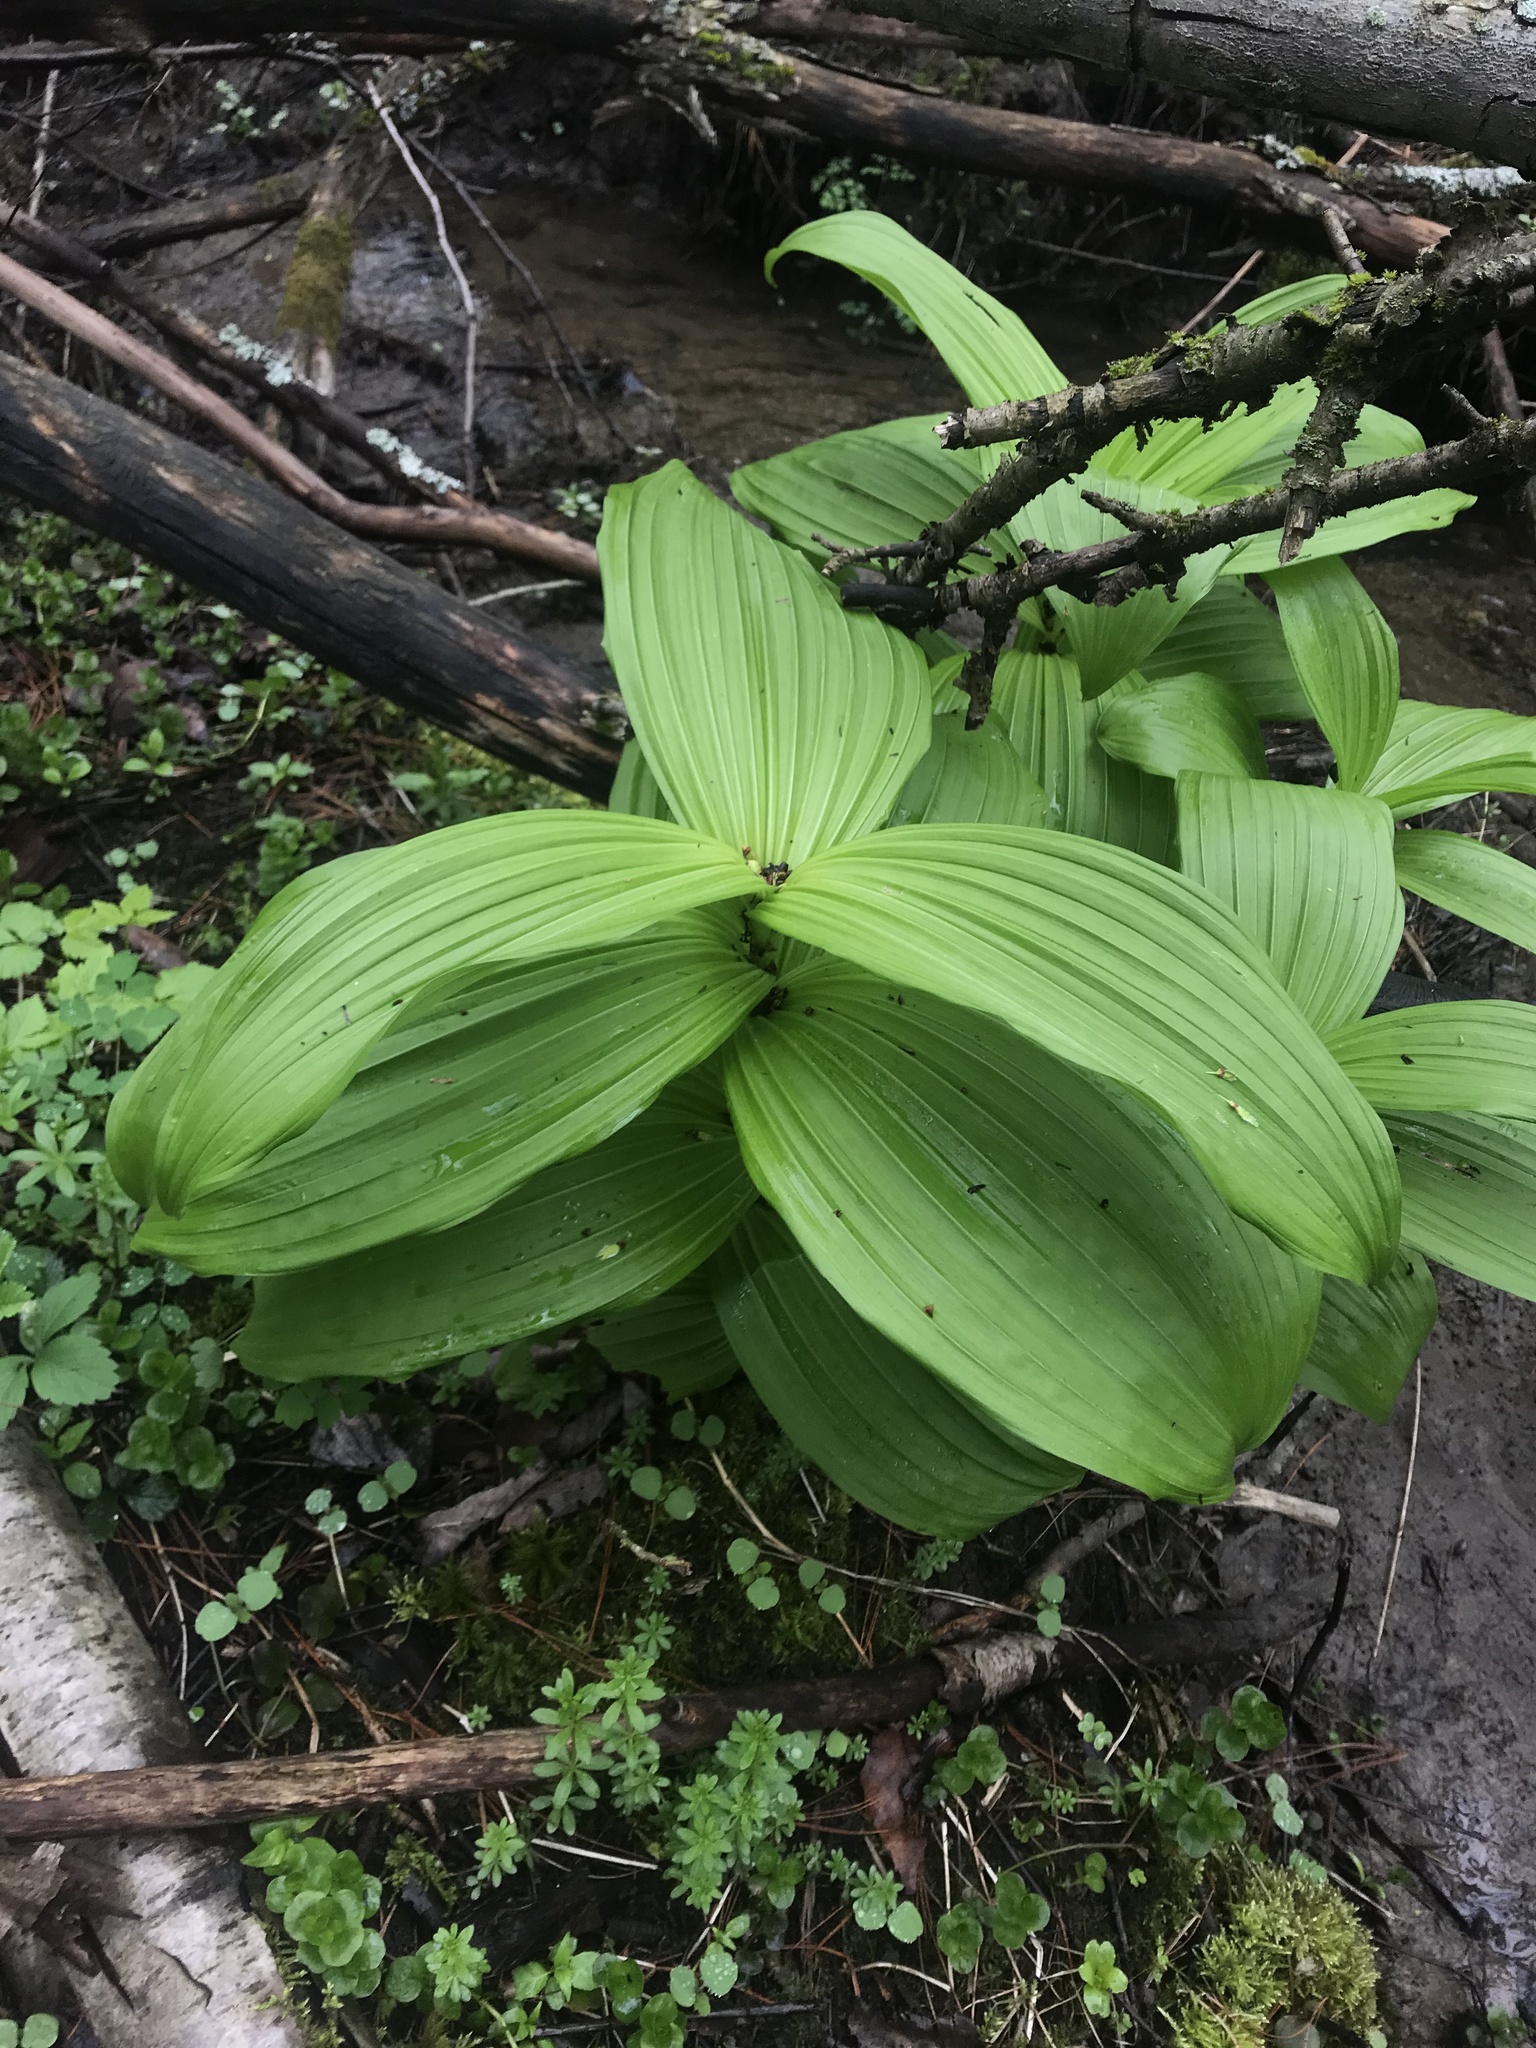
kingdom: Plantae
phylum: Tracheophyta
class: Liliopsida
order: Liliales
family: Melanthiaceae
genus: Veratrum
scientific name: Veratrum viride
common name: American false hellebore
